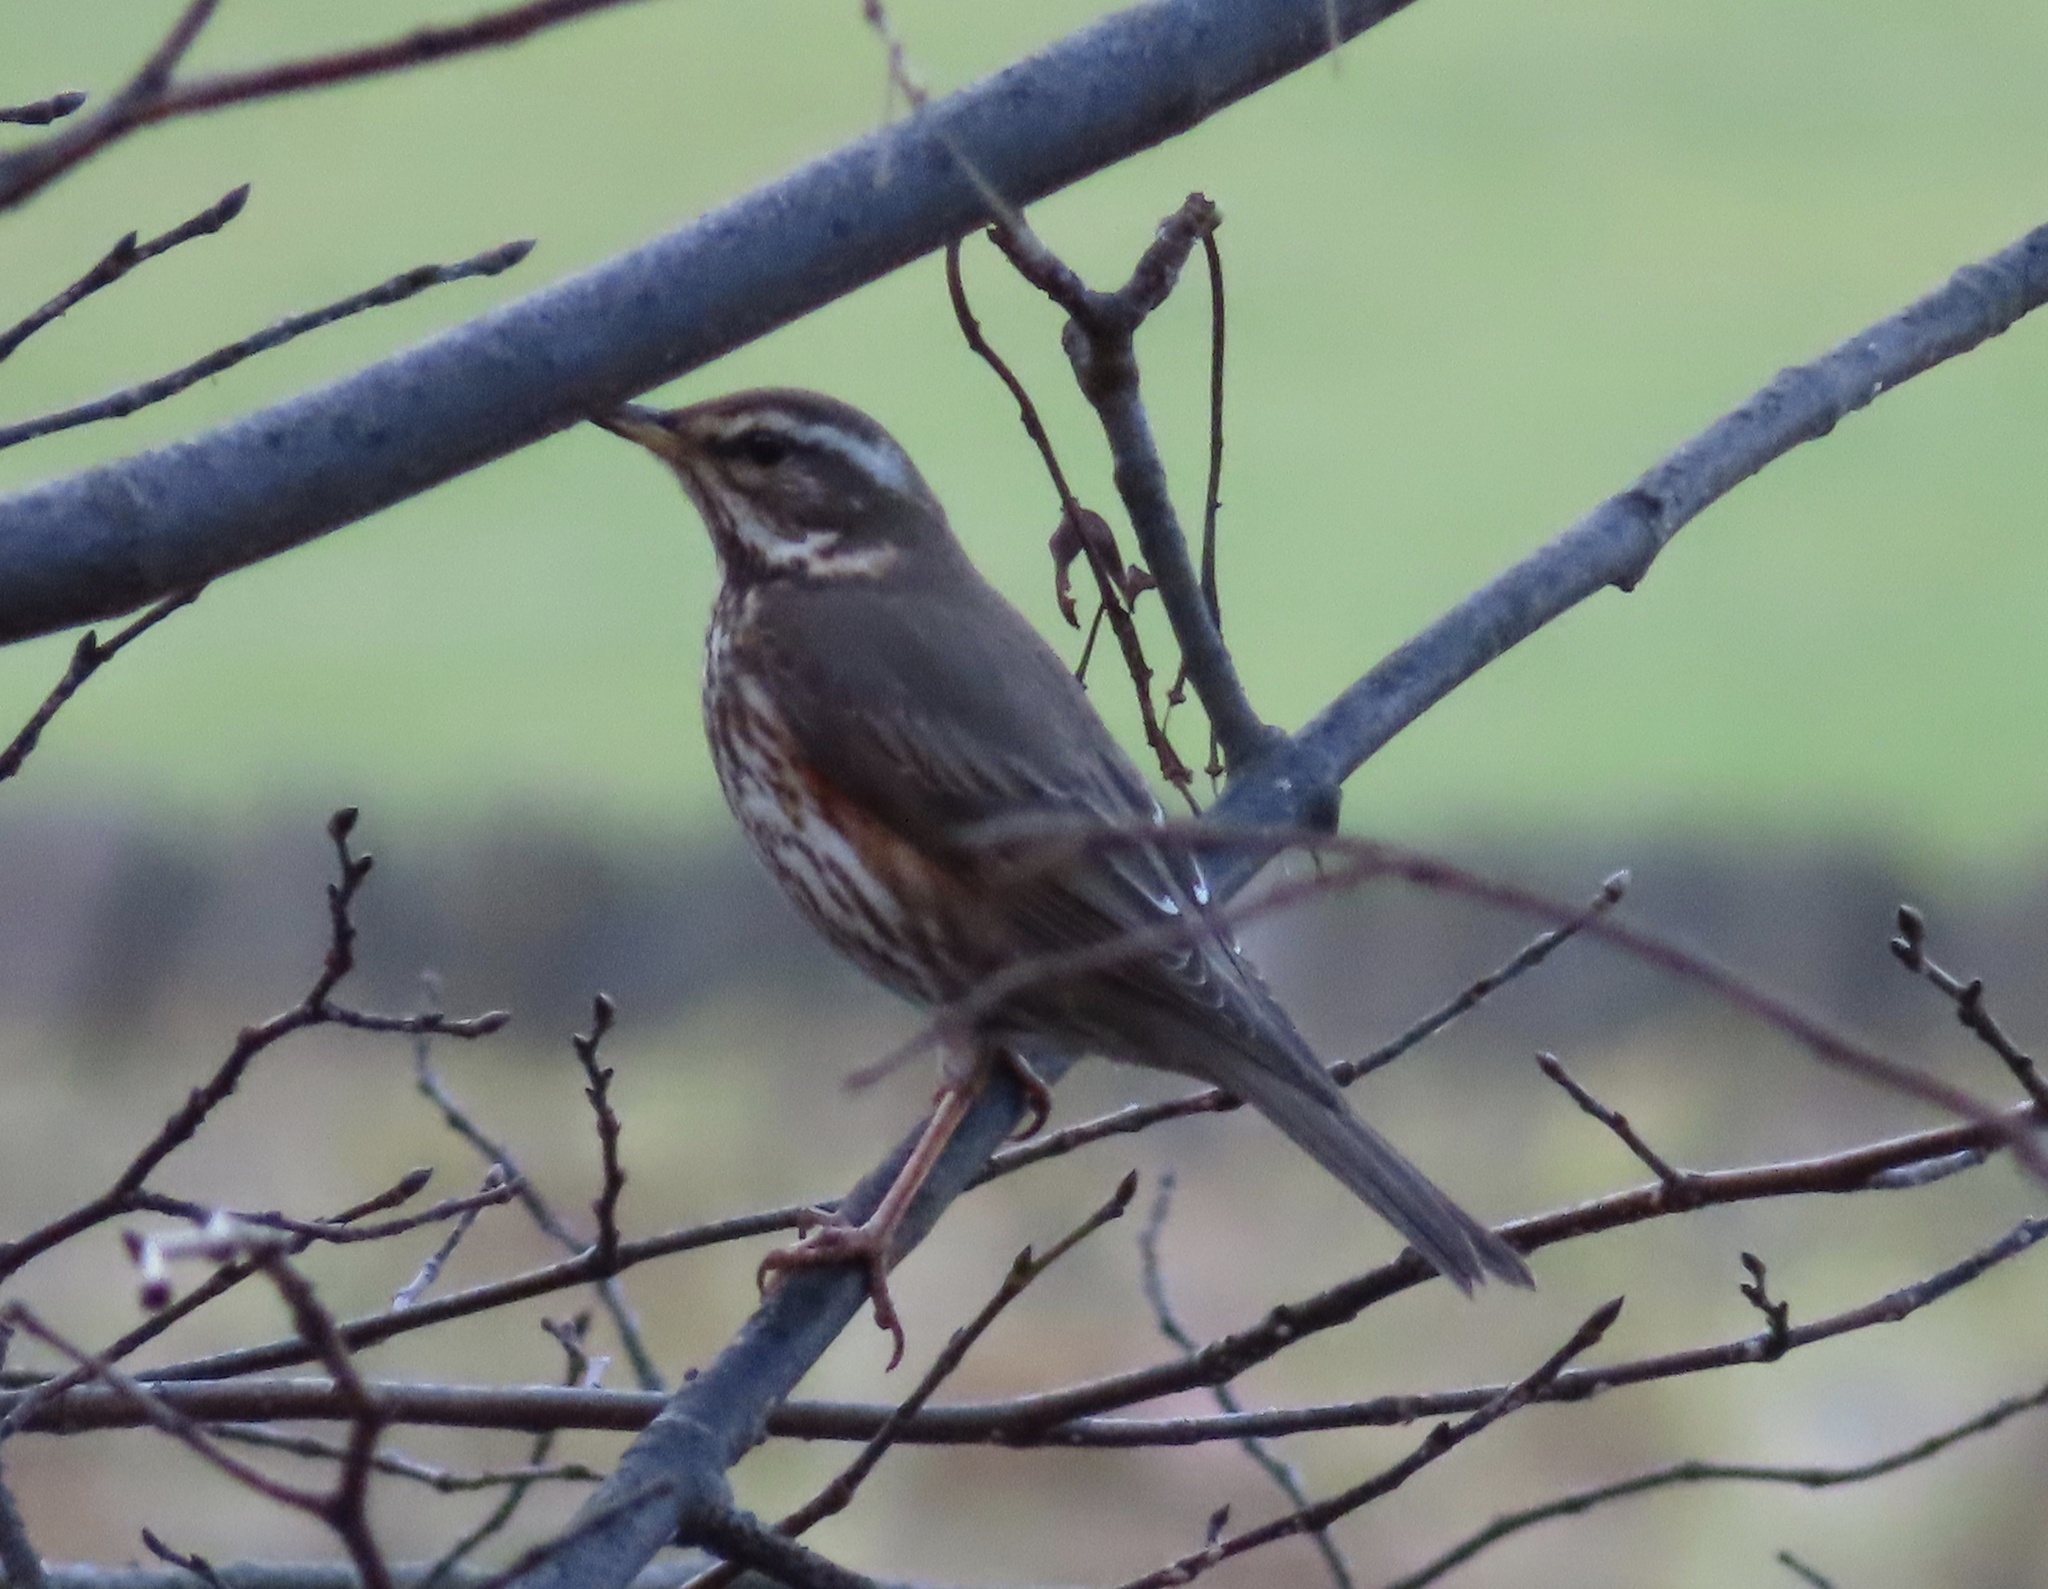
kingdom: Animalia
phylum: Chordata
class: Aves
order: Passeriformes
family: Turdidae
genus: Turdus
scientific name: Turdus iliacus
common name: Redwing
